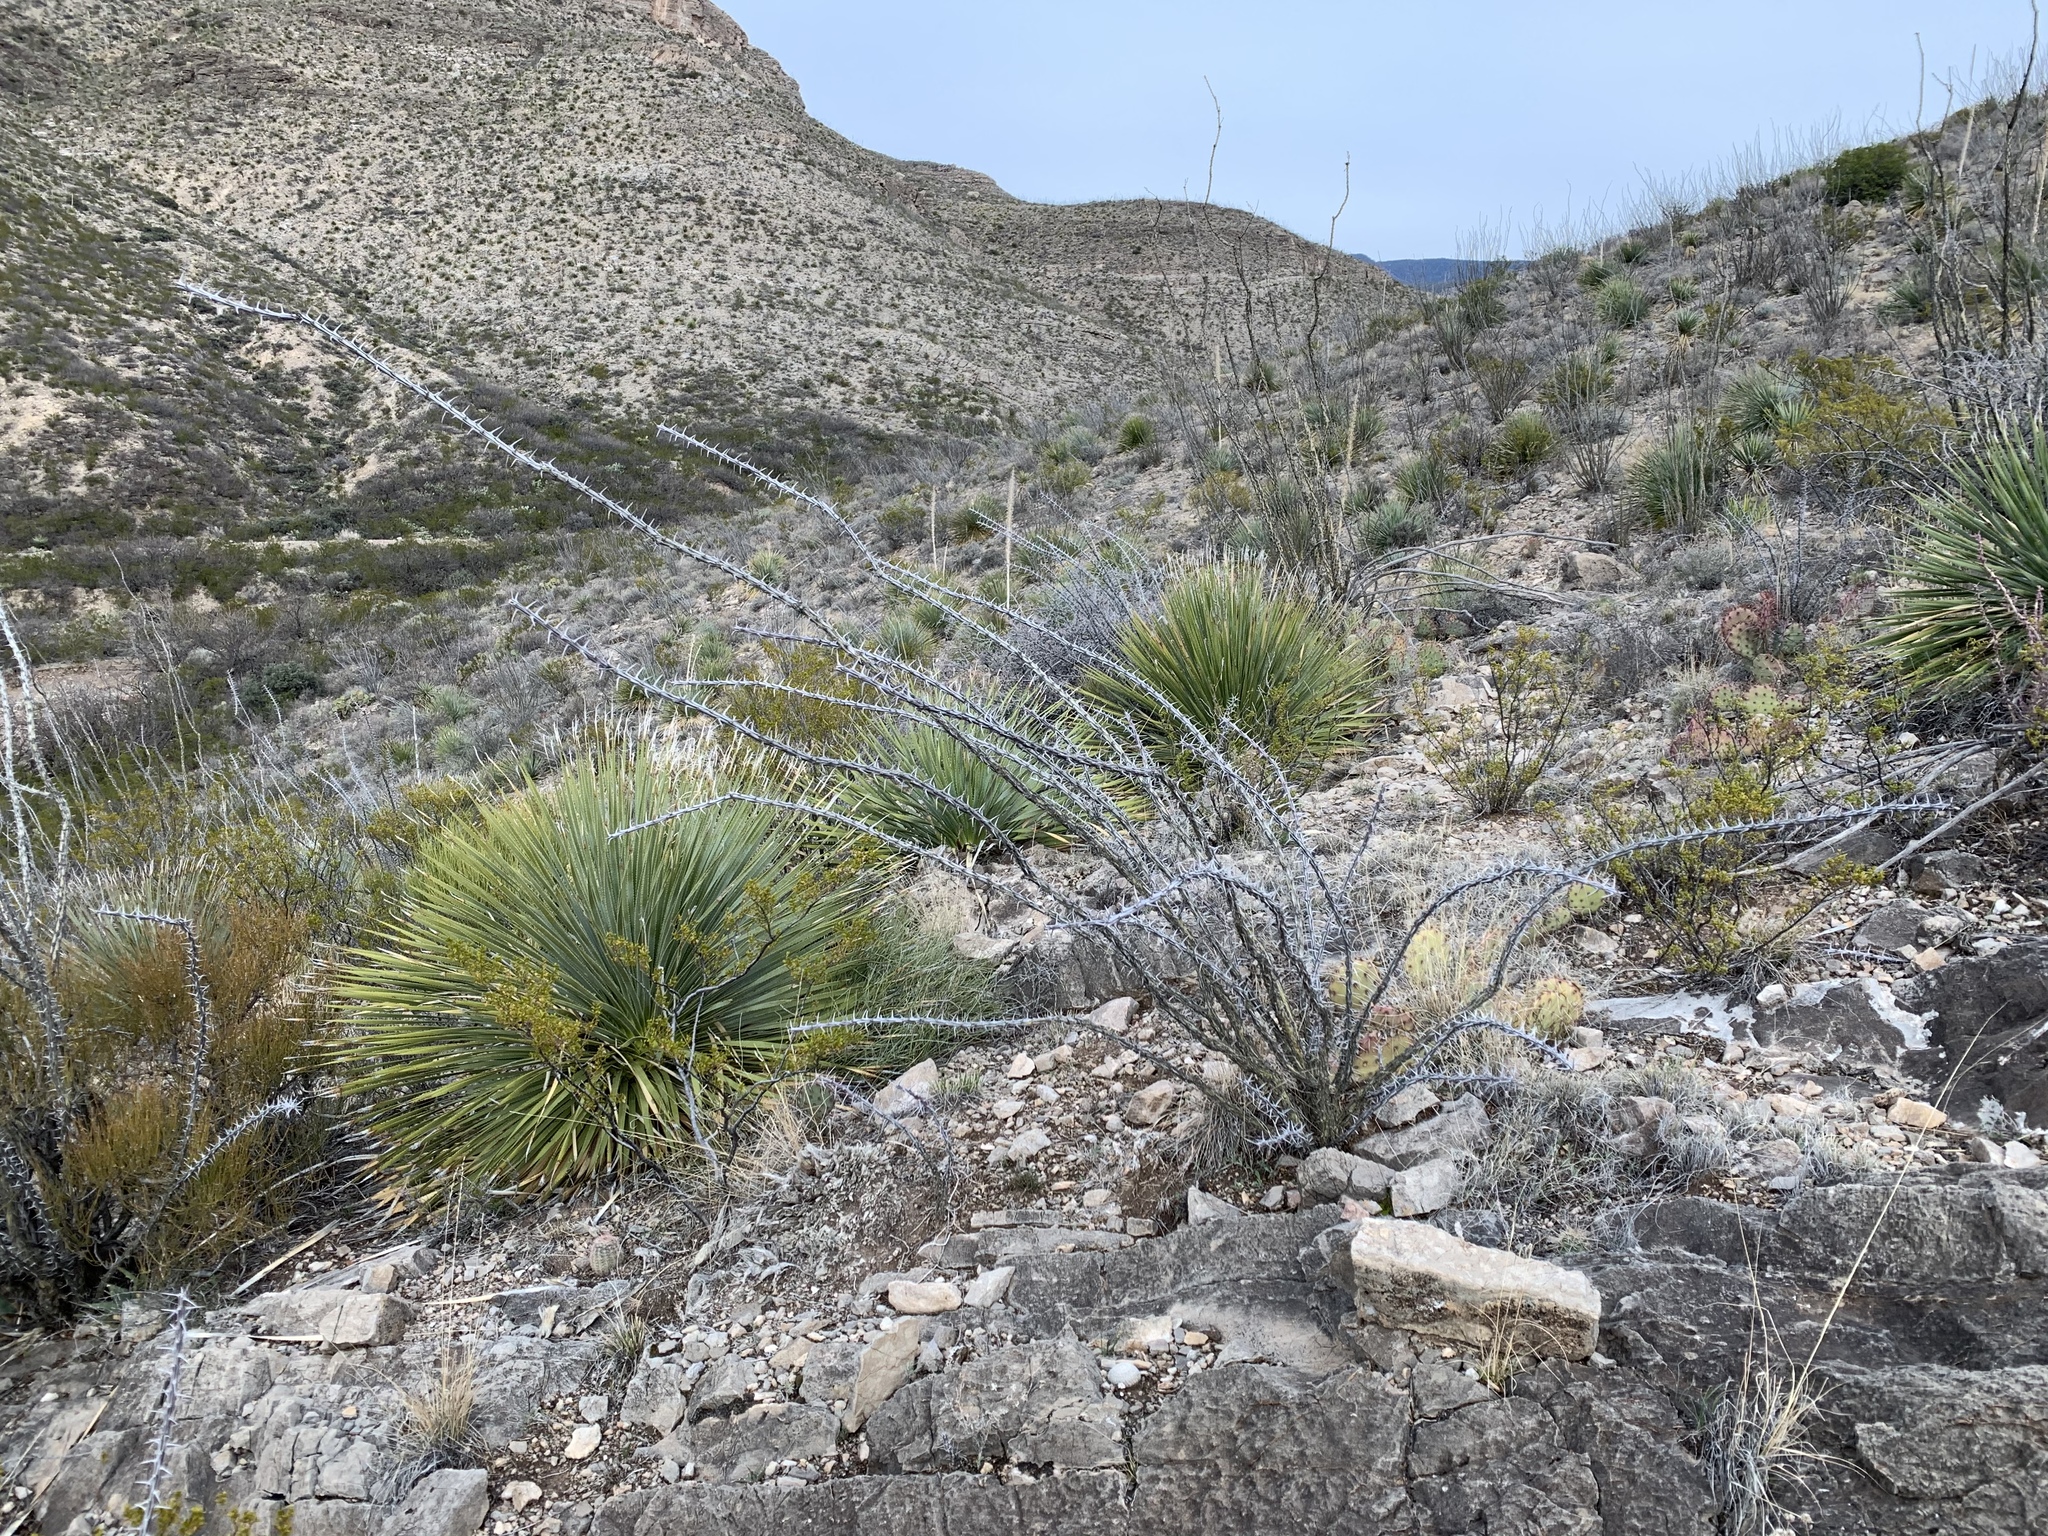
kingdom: Plantae
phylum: Tracheophyta
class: Magnoliopsida
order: Ericales
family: Fouquieriaceae
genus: Fouquieria
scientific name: Fouquieria splendens
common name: Vine-cactus
